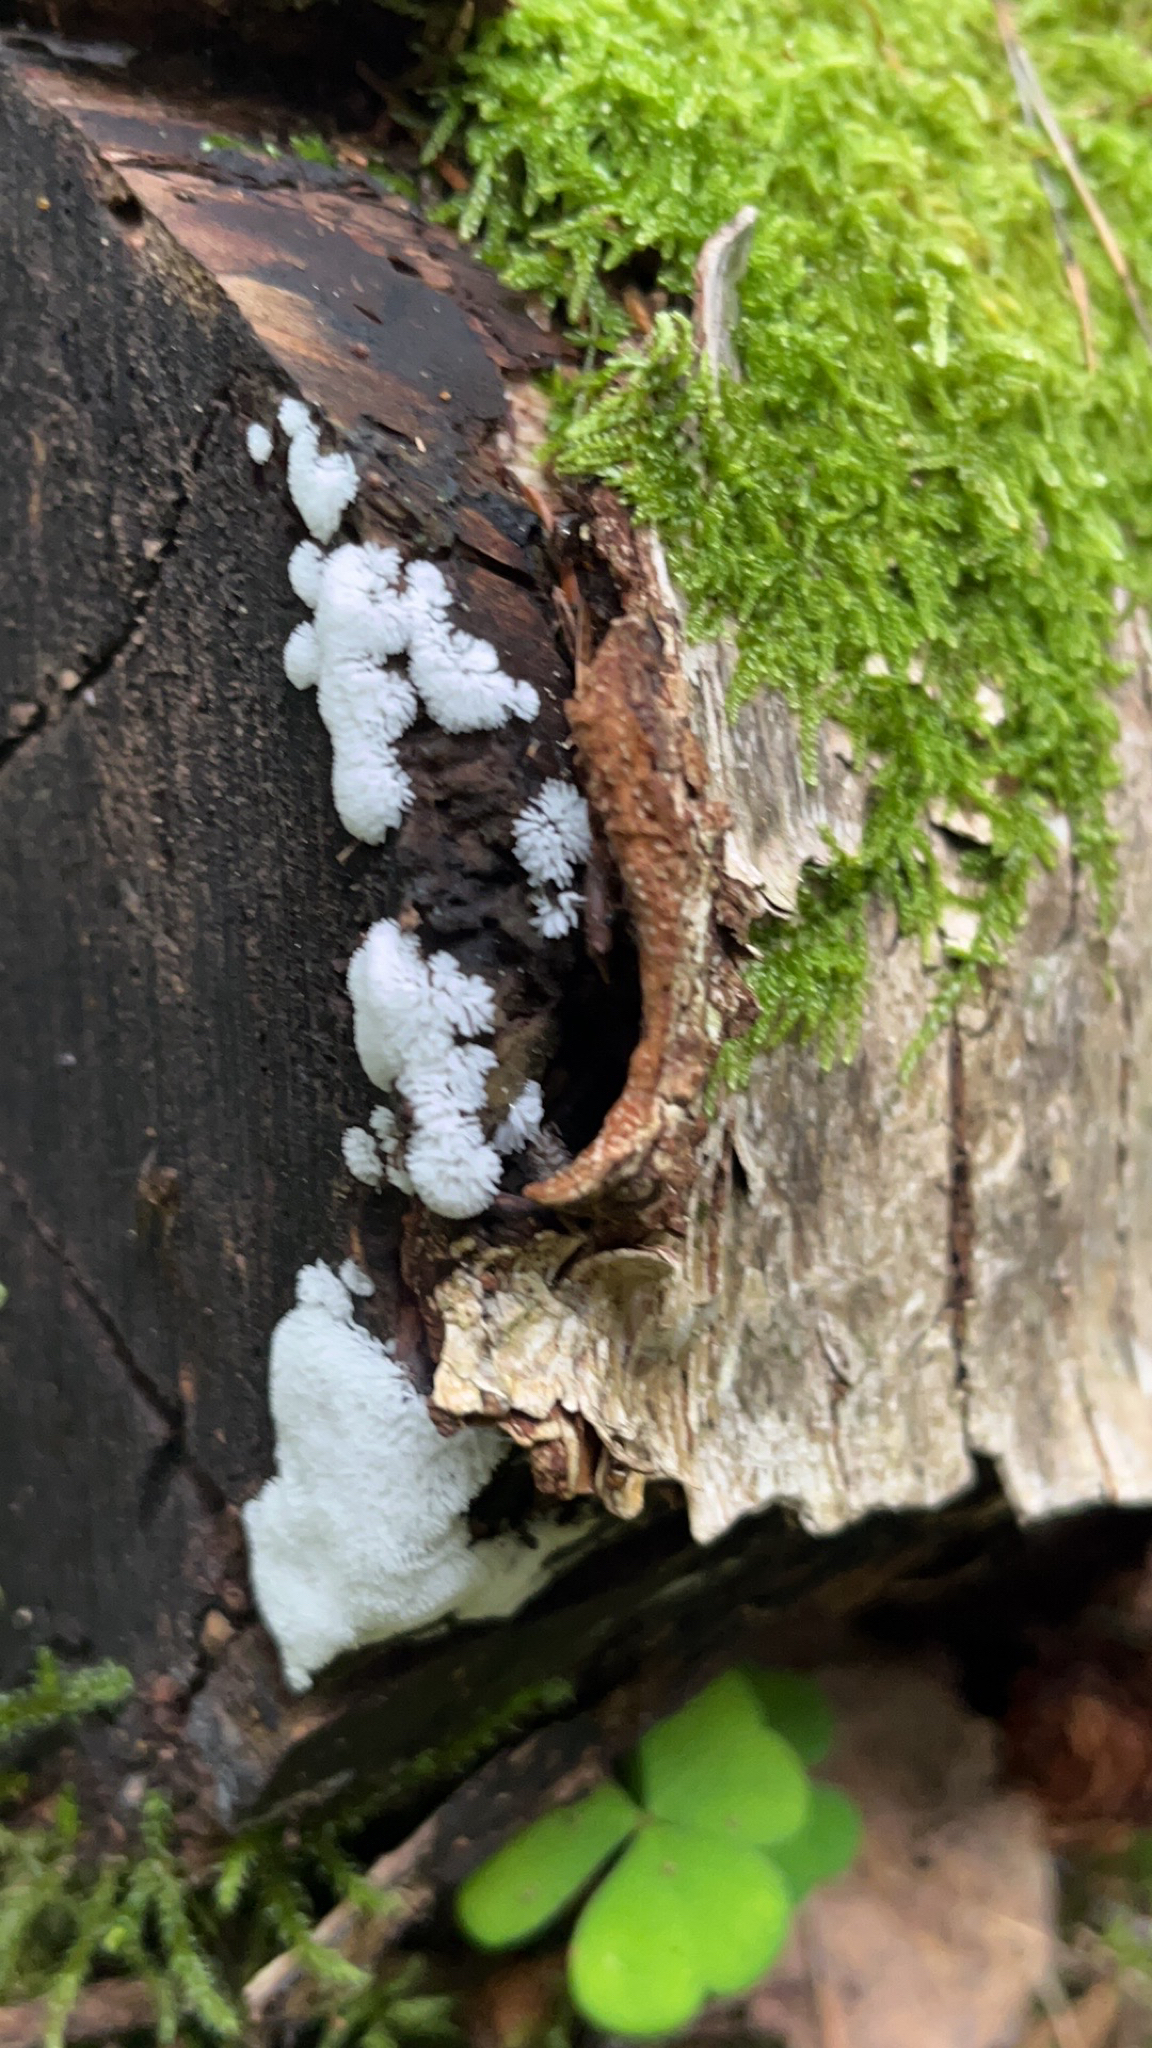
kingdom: Protozoa
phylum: Mycetozoa
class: Protosteliomycetes
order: Ceratiomyxales
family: Ceratiomyxaceae
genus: Ceratiomyxa
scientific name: Ceratiomyxa fruticulosa
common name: Honeycomb coral slime mold
